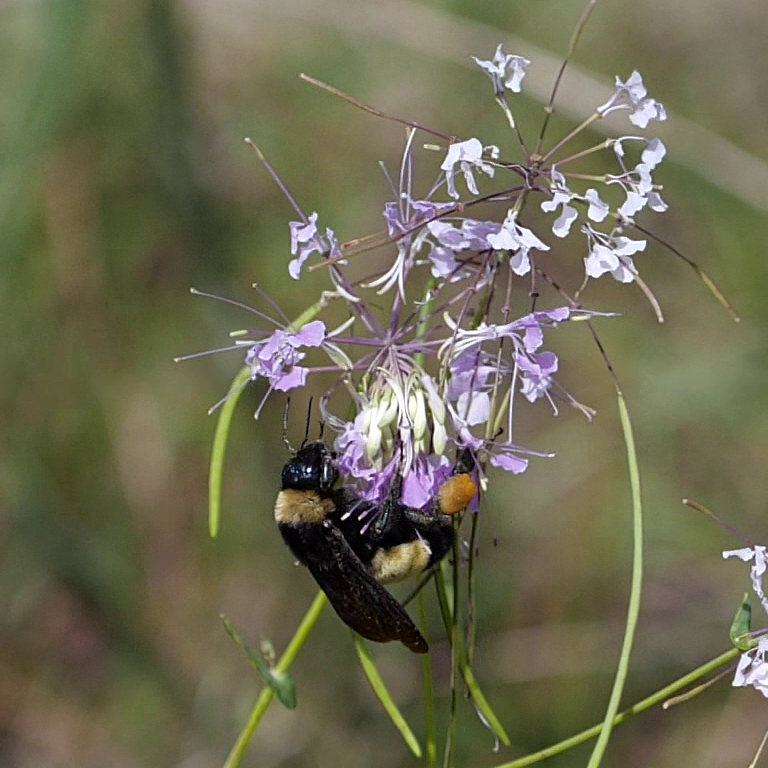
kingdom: Animalia
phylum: Arthropoda
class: Insecta
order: Hymenoptera
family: Apidae
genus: Bombus
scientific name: Bombus pensylvanicus
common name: Bumble bee
